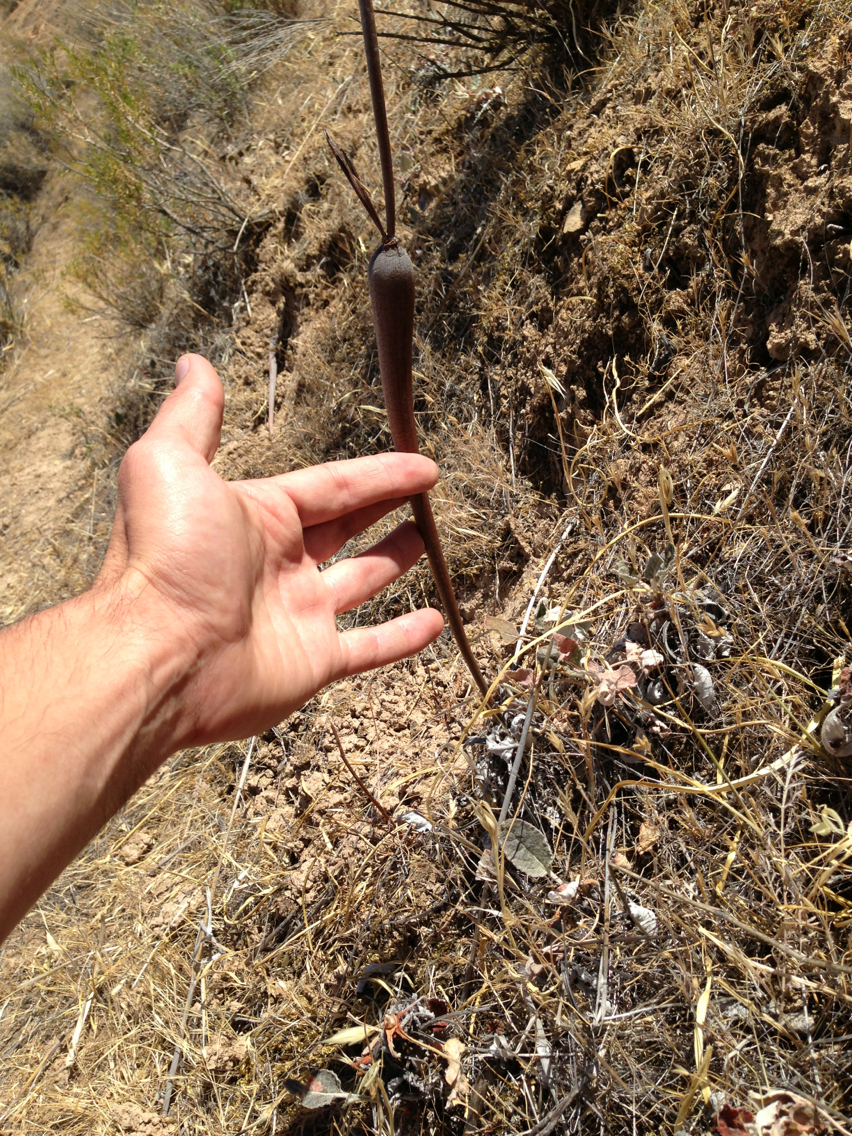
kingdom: Plantae
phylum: Tracheophyta
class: Magnoliopsida
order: Caryophyllales
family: Polygonaceae
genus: Eriogonum
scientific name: Eriogonum nudum
